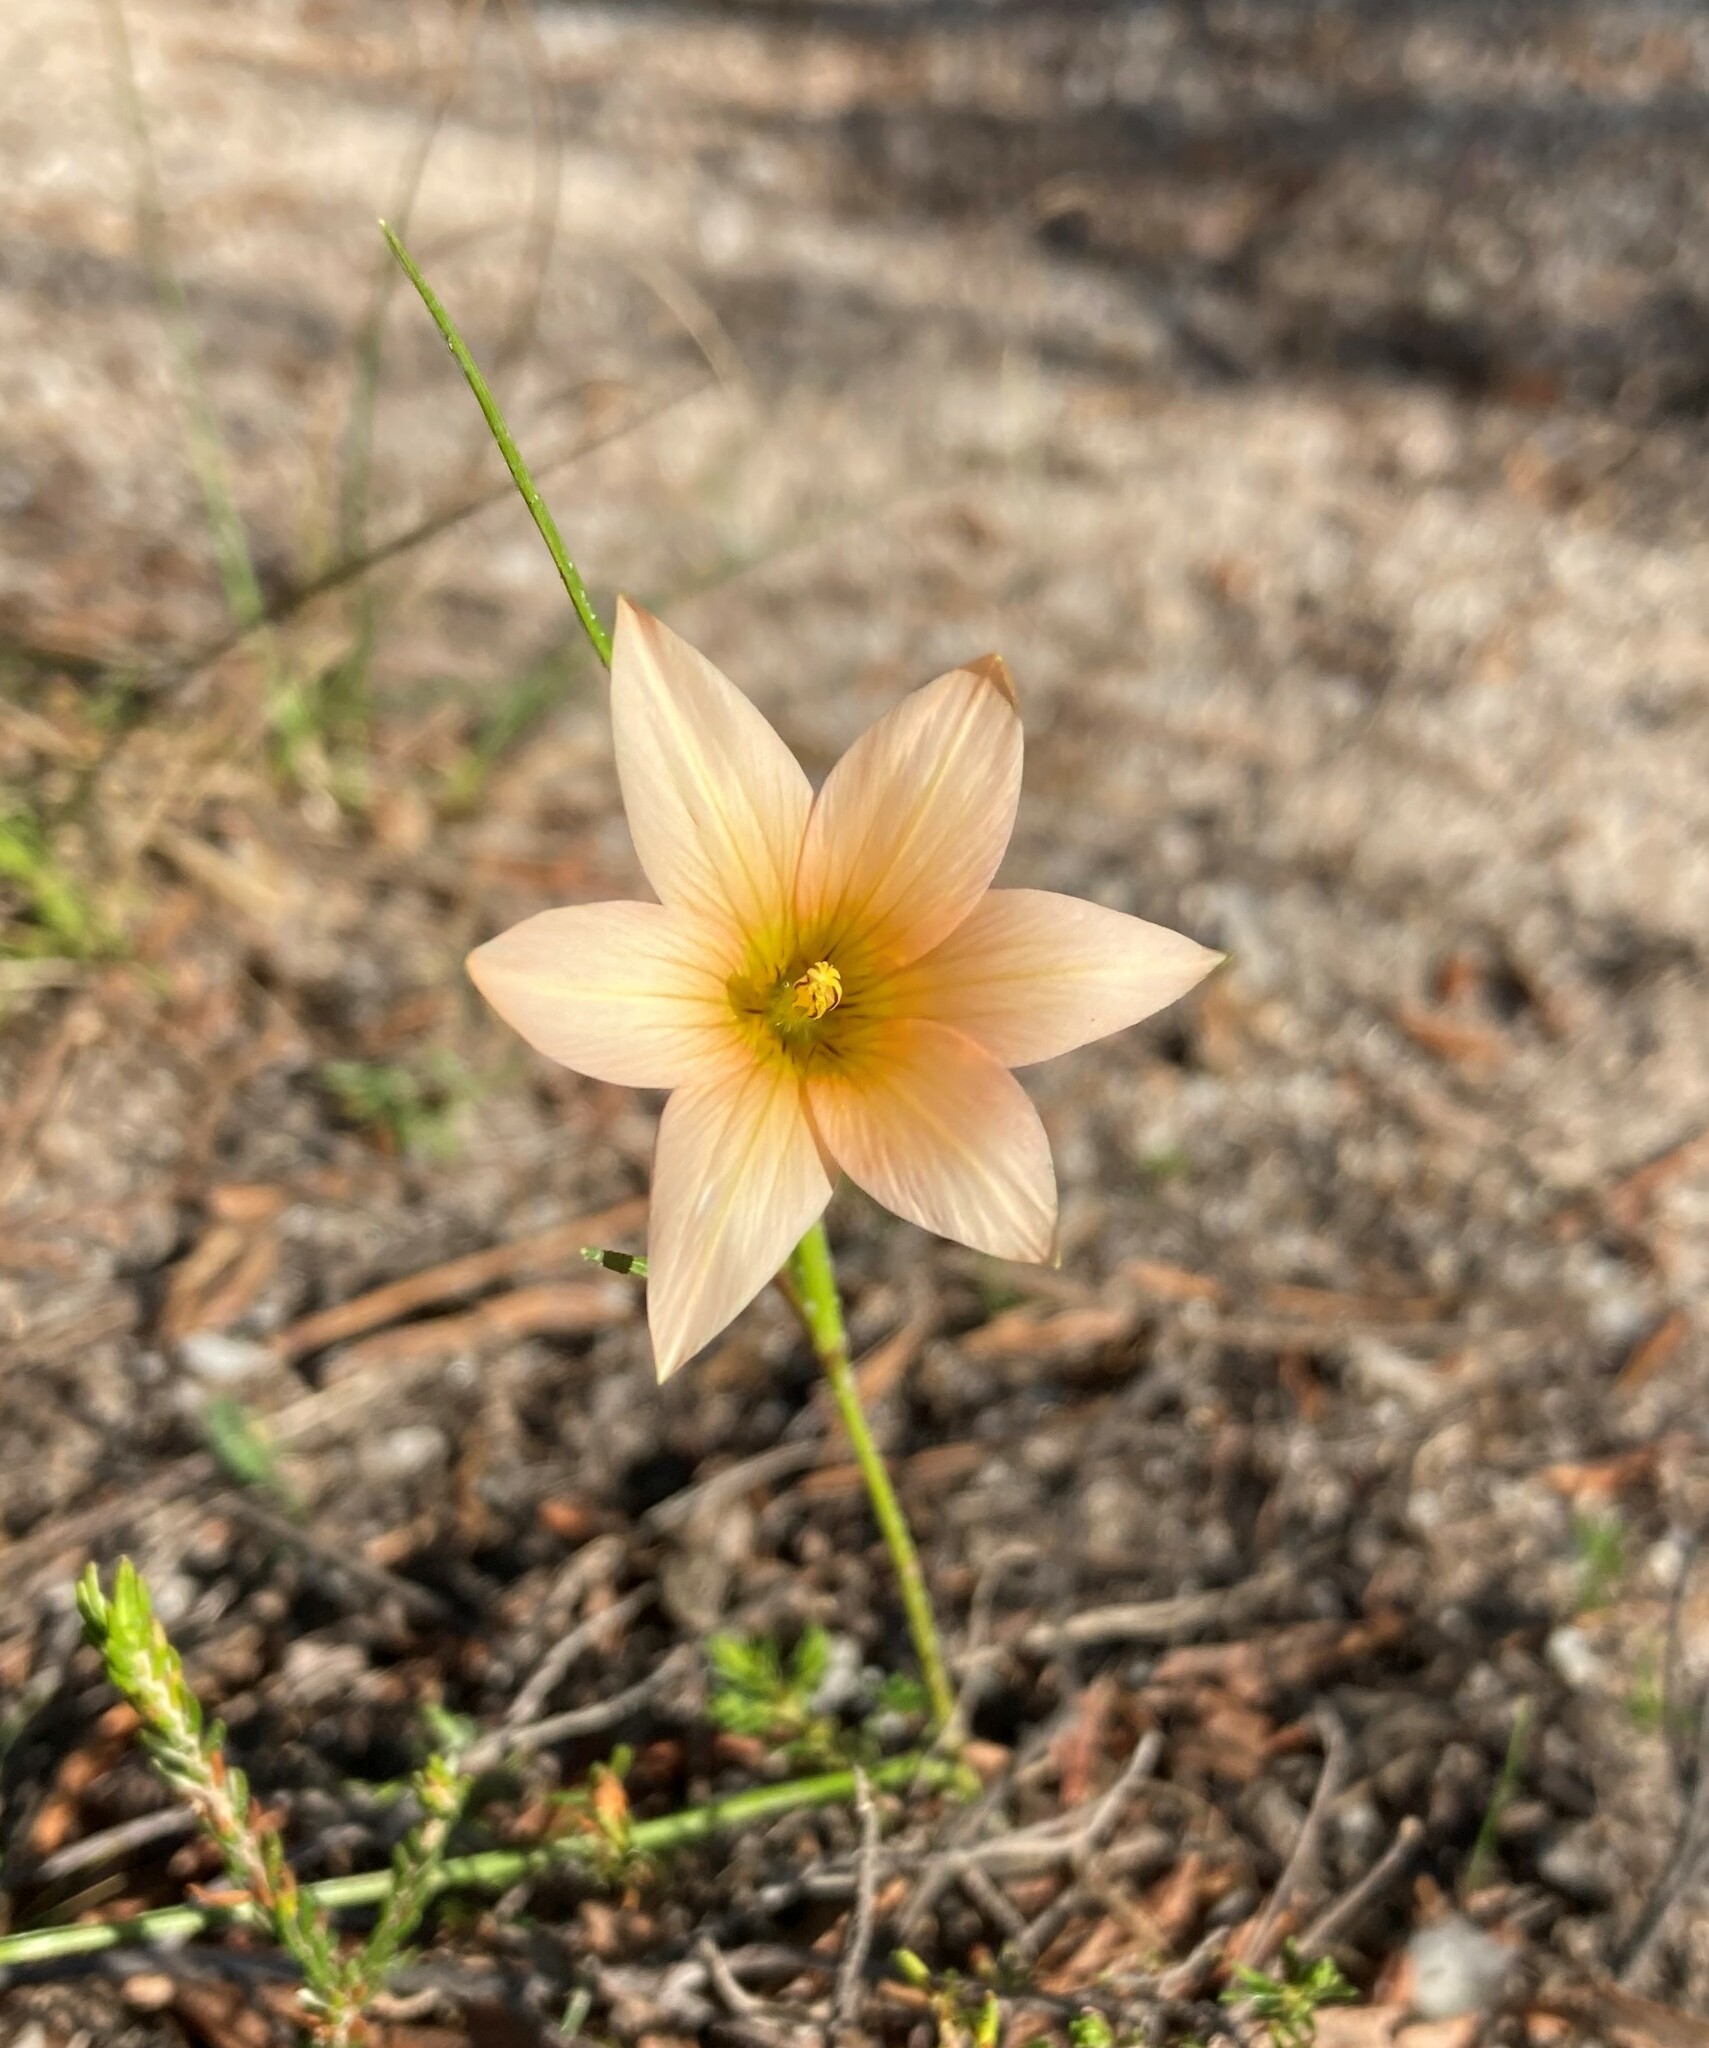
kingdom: Plantae
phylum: Tracheophyta
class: Liliopsida
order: Asparagales
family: Iridaceae
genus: Romulea
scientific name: Romulea setifolia
